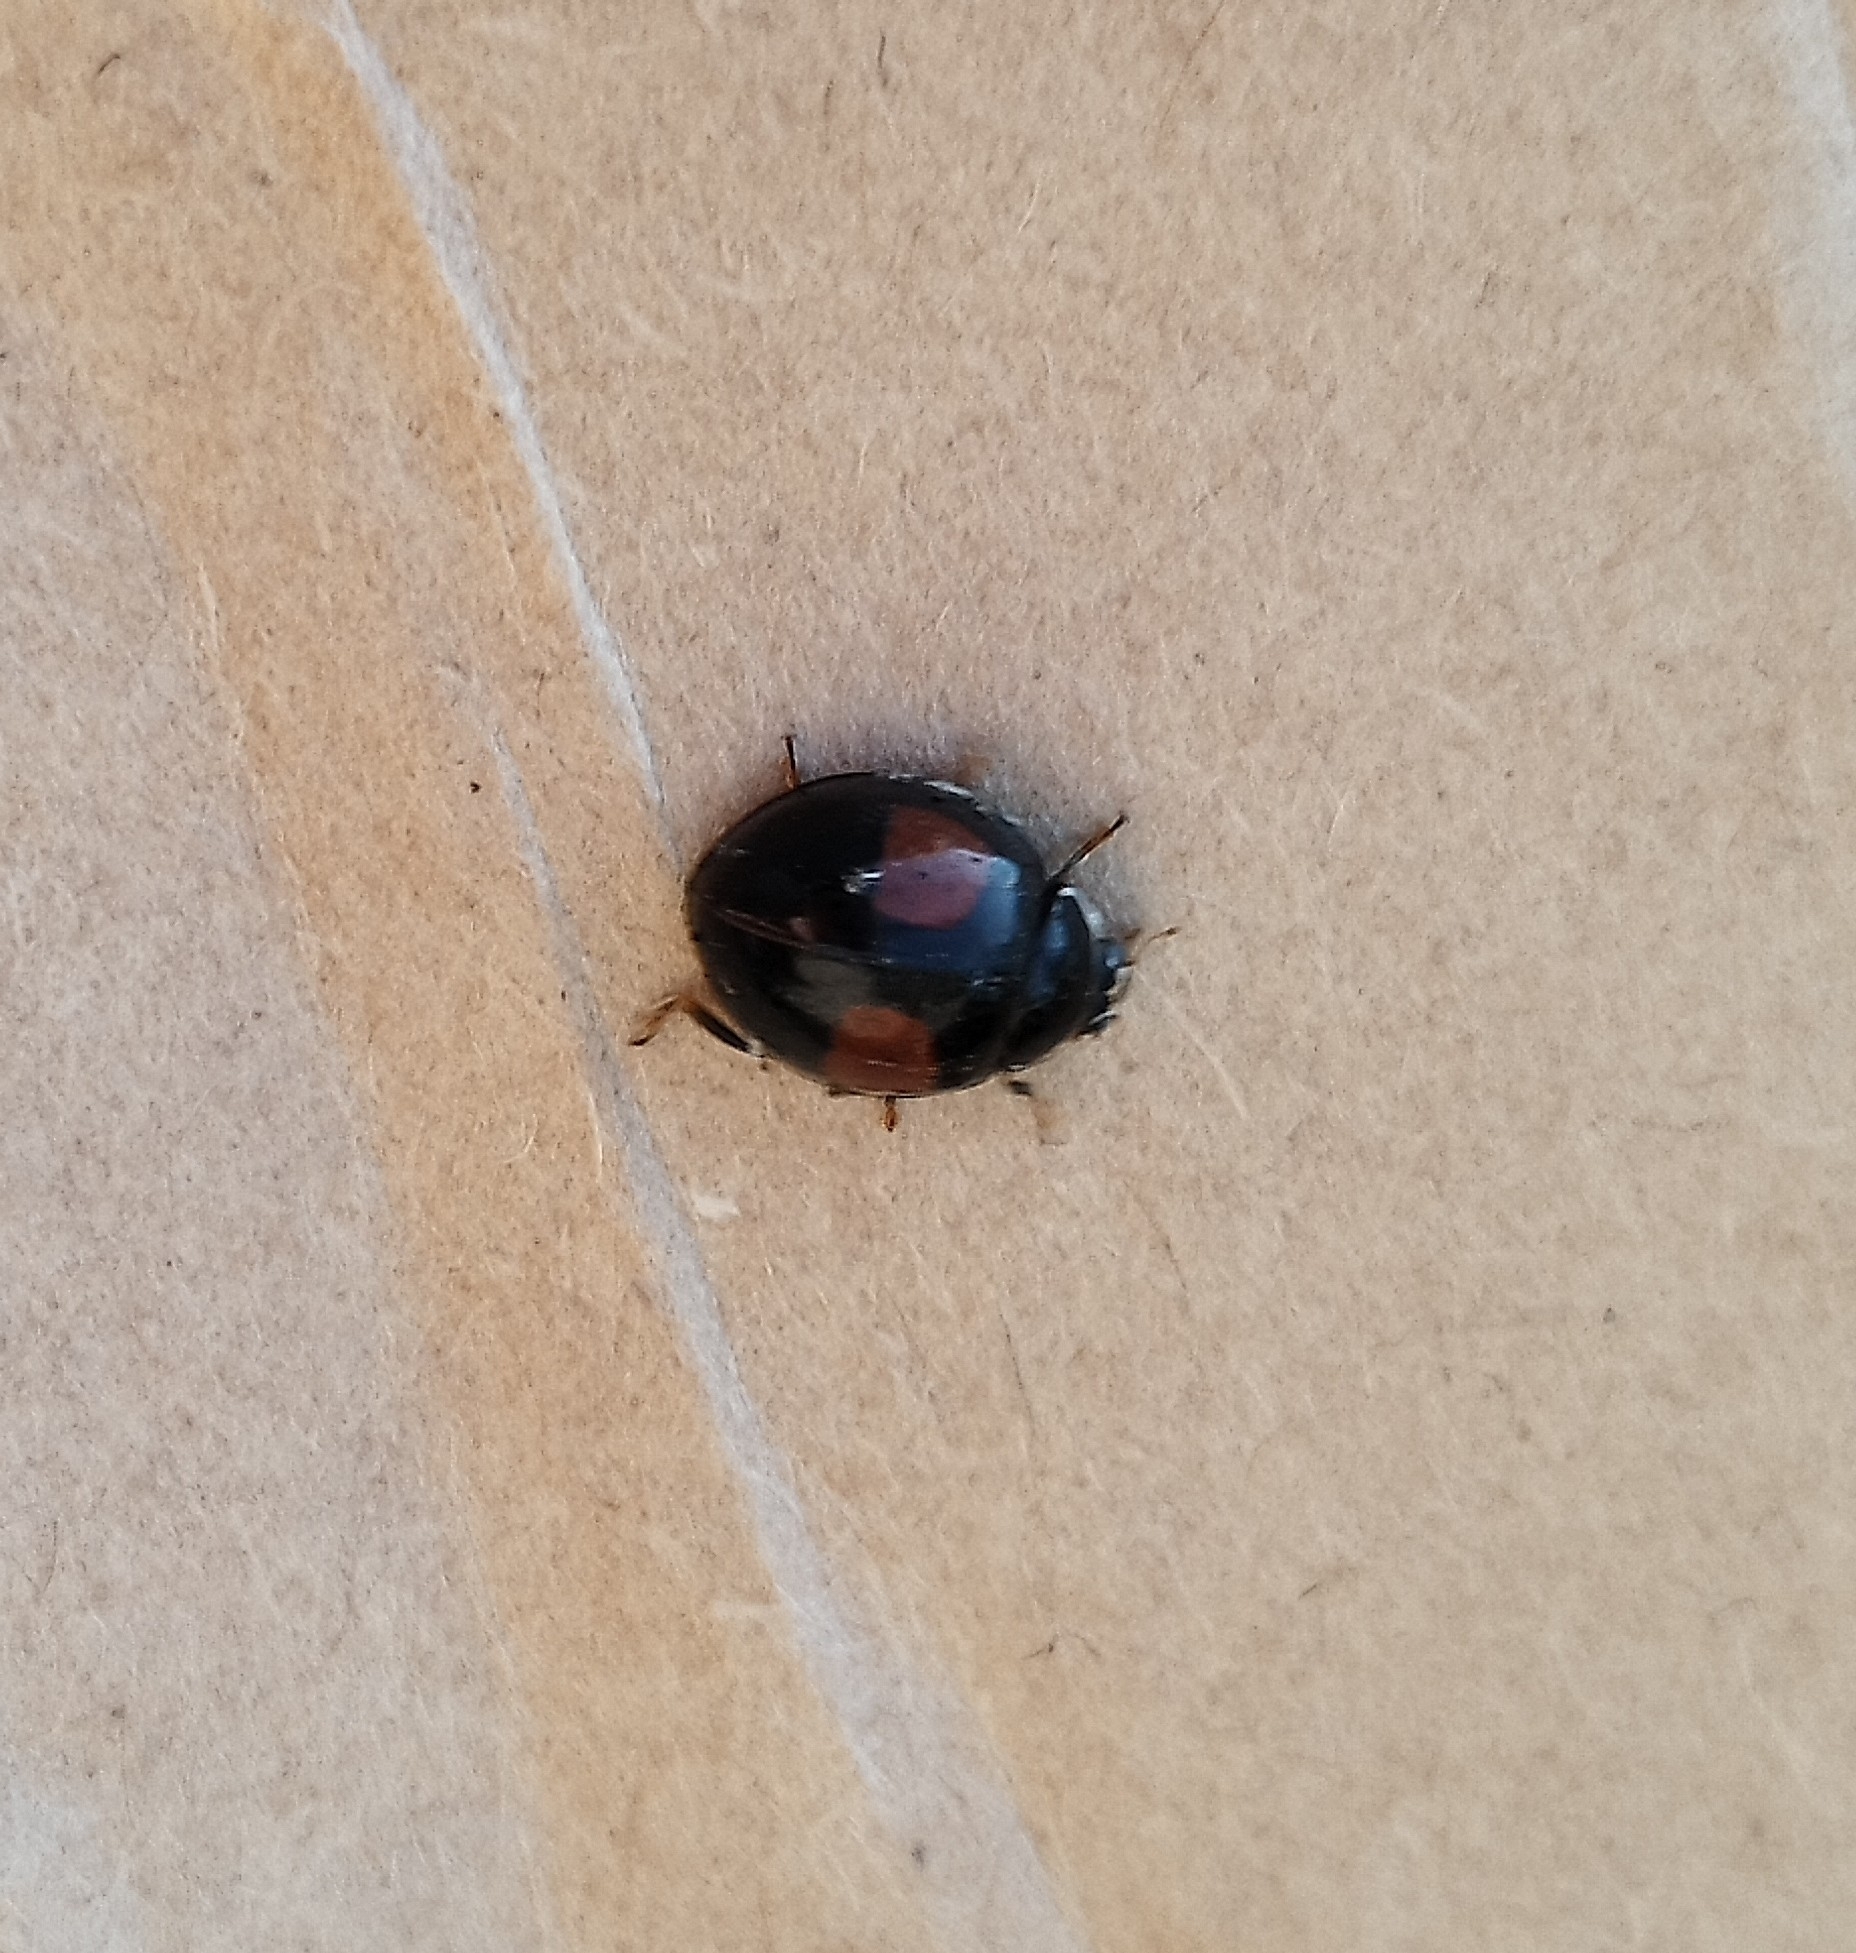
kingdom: Animalia
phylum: Arthropoda
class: Insecta
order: Coleoptera
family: Coccinellidae
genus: Olla
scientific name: Olla v-nigrum
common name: Ashy gray lady beetle
